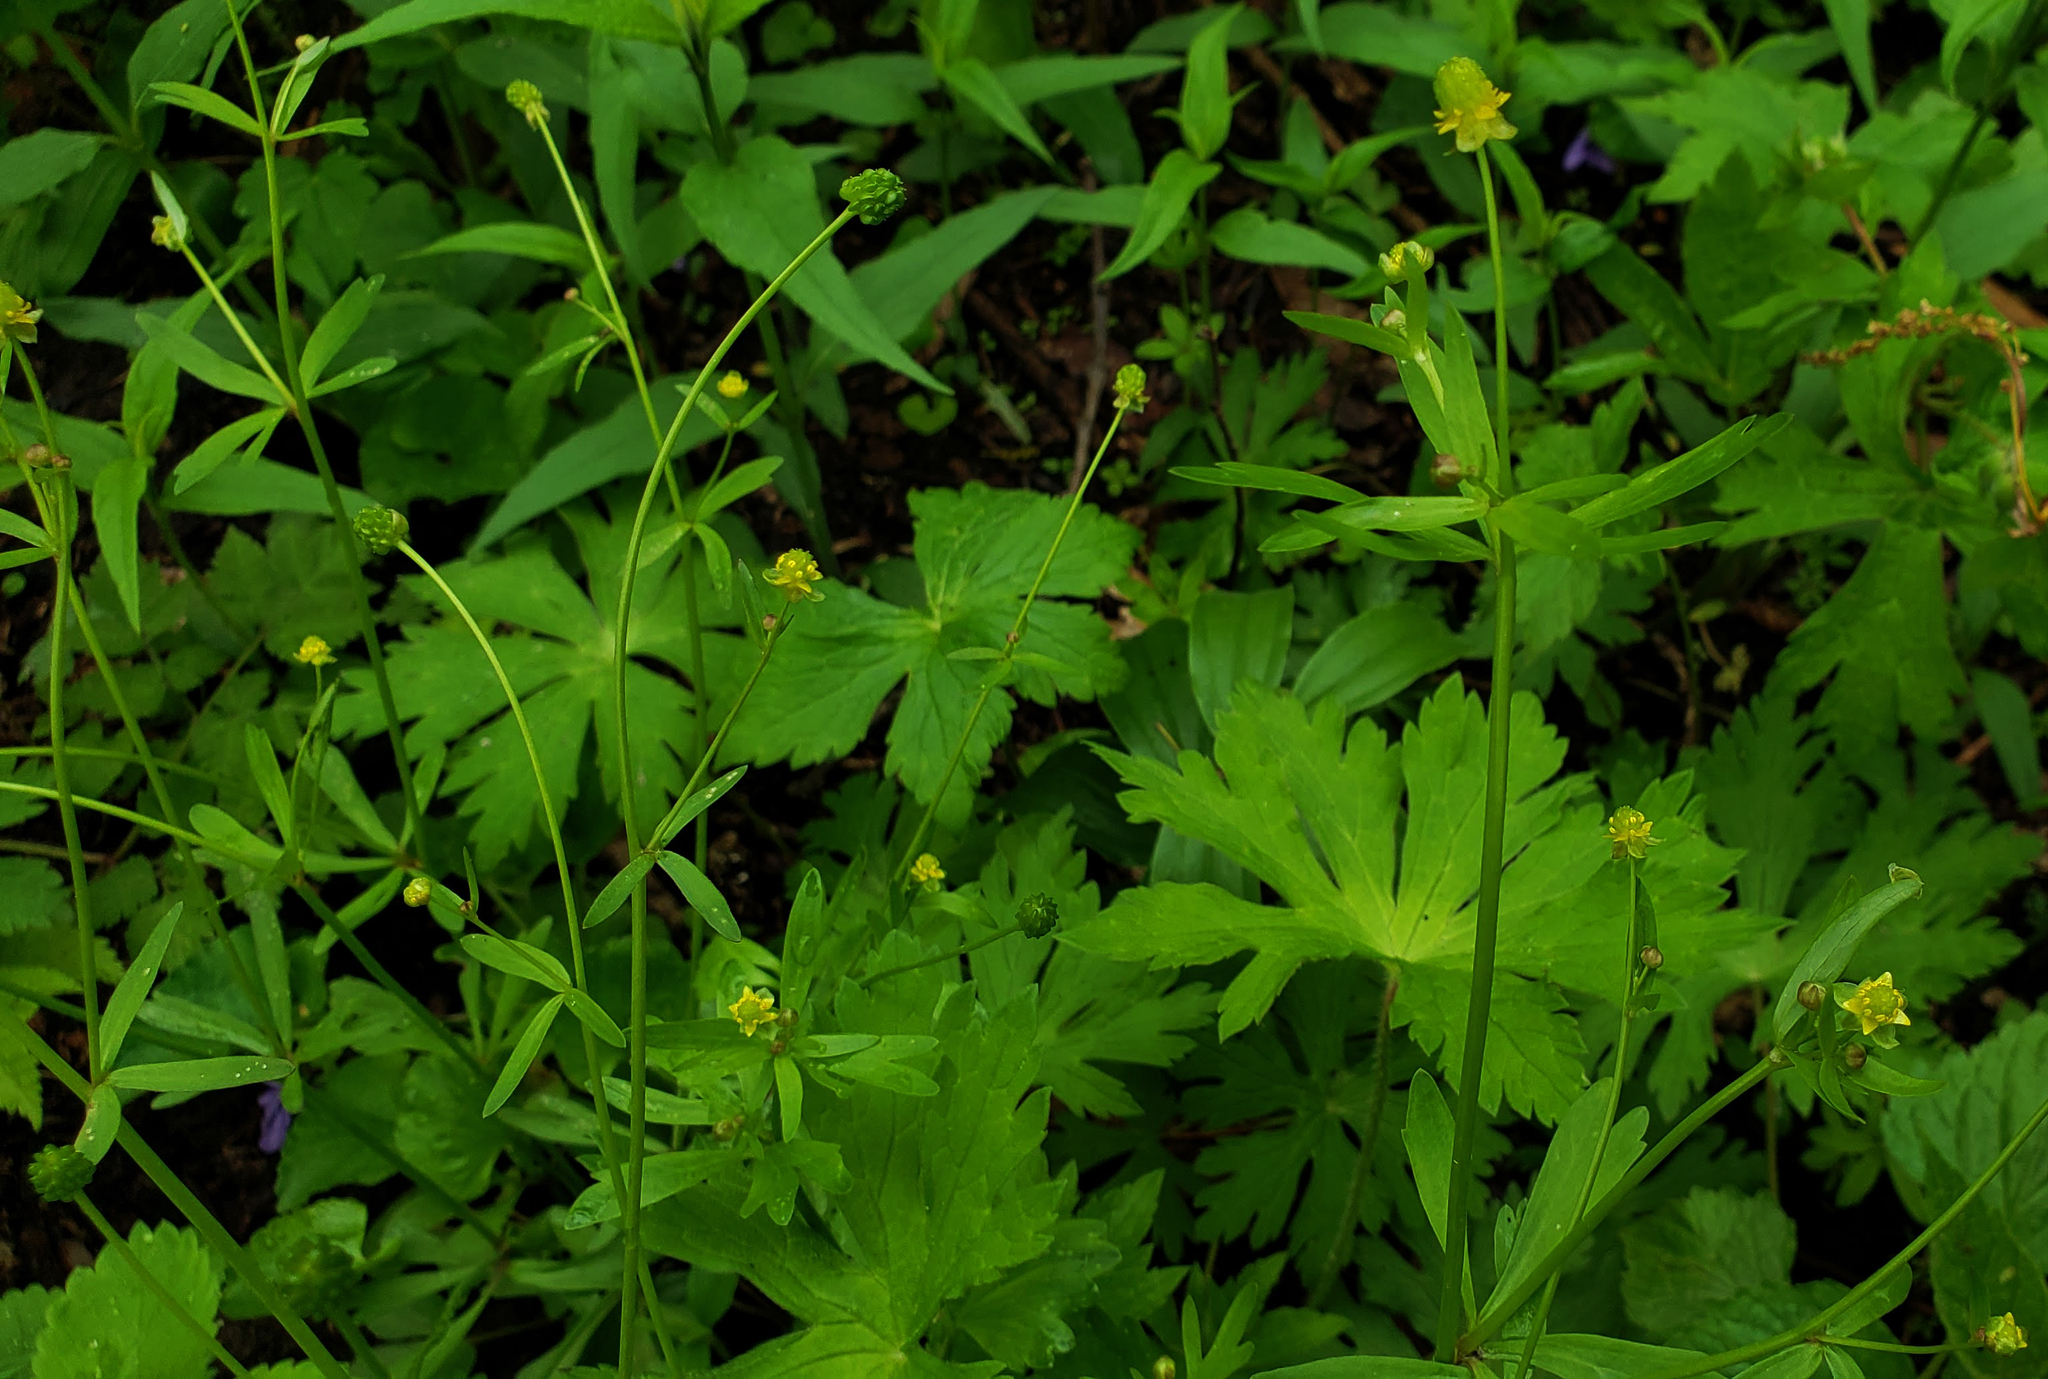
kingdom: Plantae
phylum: Tracheophyta
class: Magnoliopsida
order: Ranunculales
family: Ranunculaceae
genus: Ranunculus
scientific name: Ranunculus abortivus
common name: Early wood buttercup
